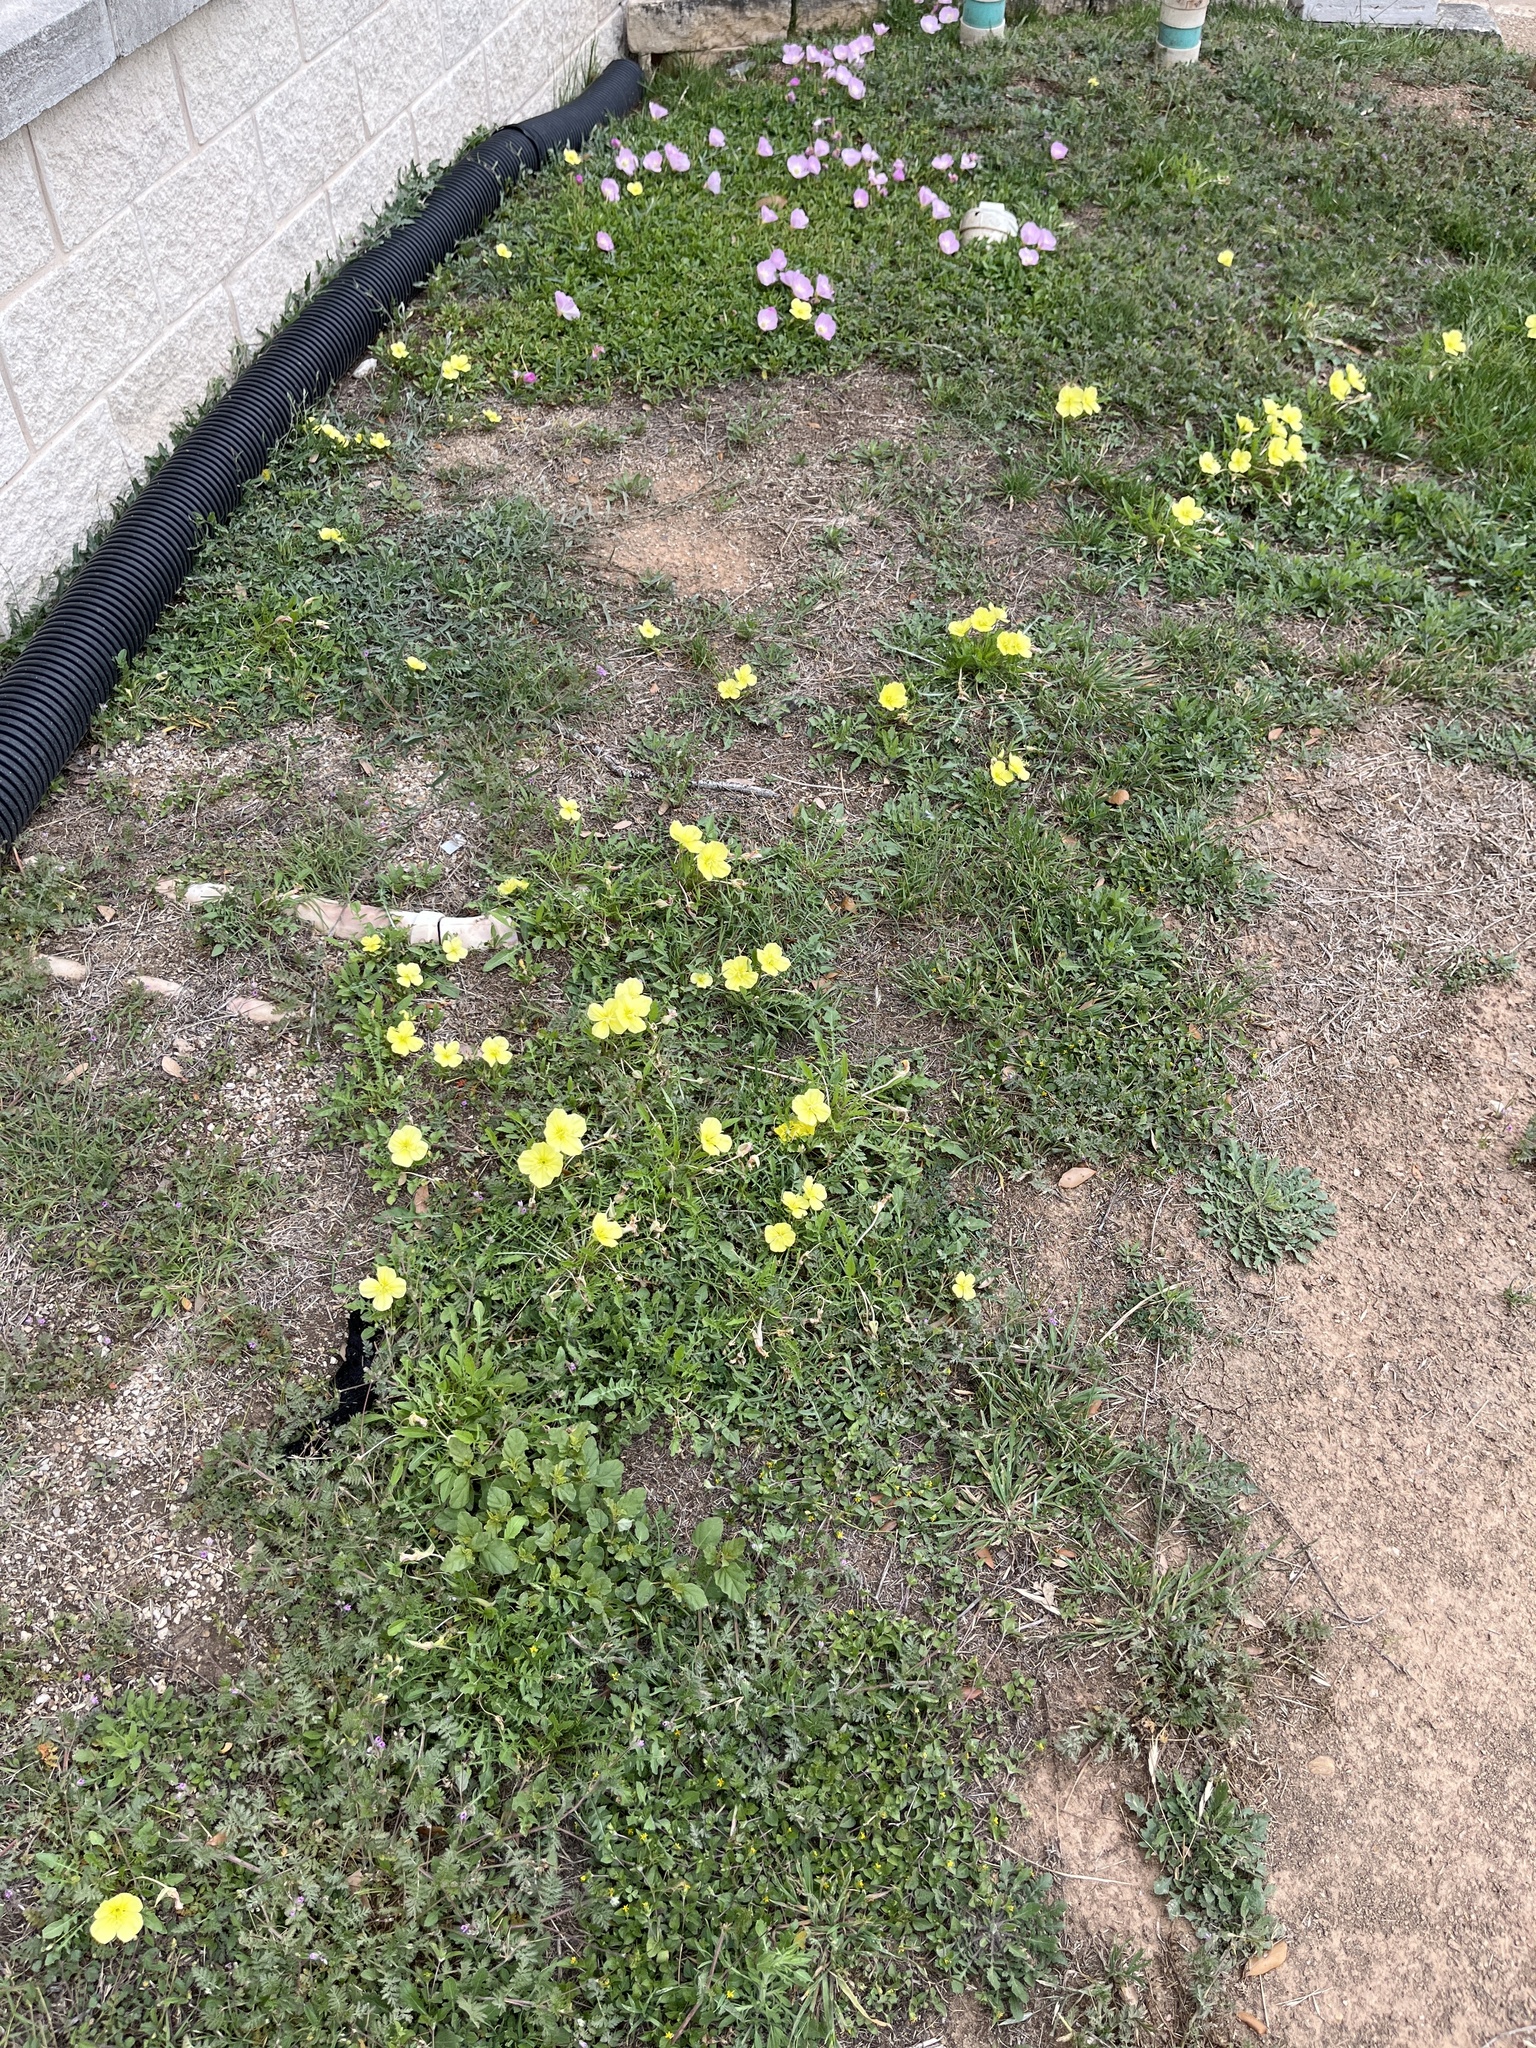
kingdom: Plantae
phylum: Tracheophyta
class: Magnoliopsida
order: Myrtales
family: Onagraceae
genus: Oenothera
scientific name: Oenothera triloba
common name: Sessile evening-primrose
